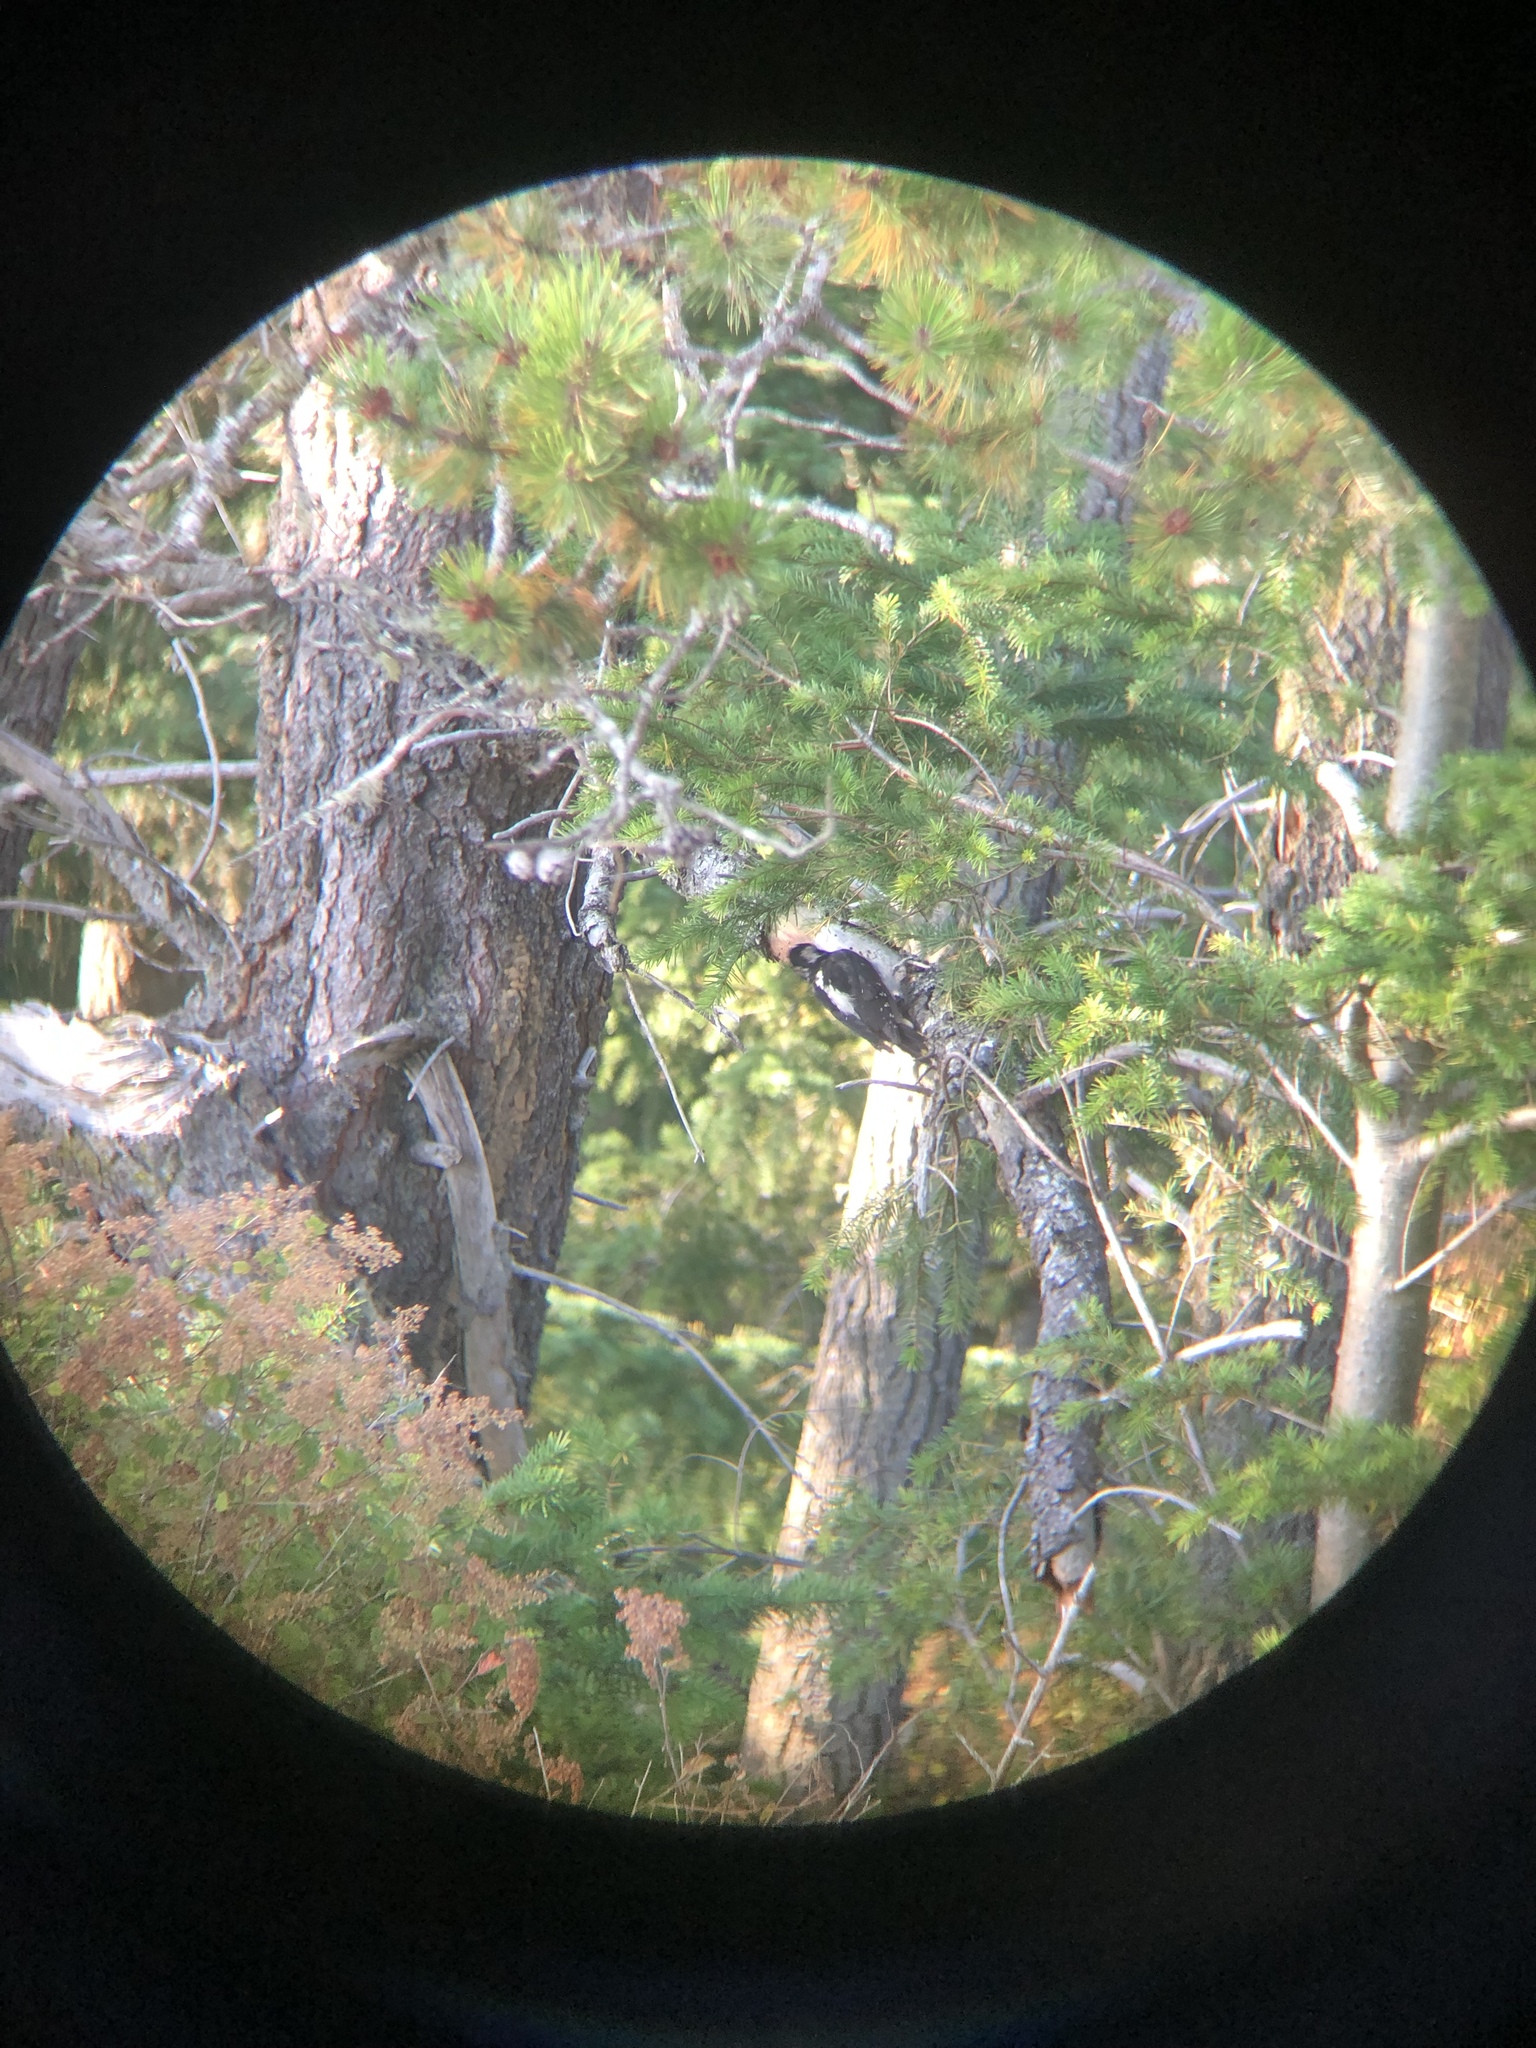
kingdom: Animalia
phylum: Chordata
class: Aves
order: Piciformes
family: Picidae
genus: Leuconotopicus
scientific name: Leuconotopicus villosus
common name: Hairy woodpecker
